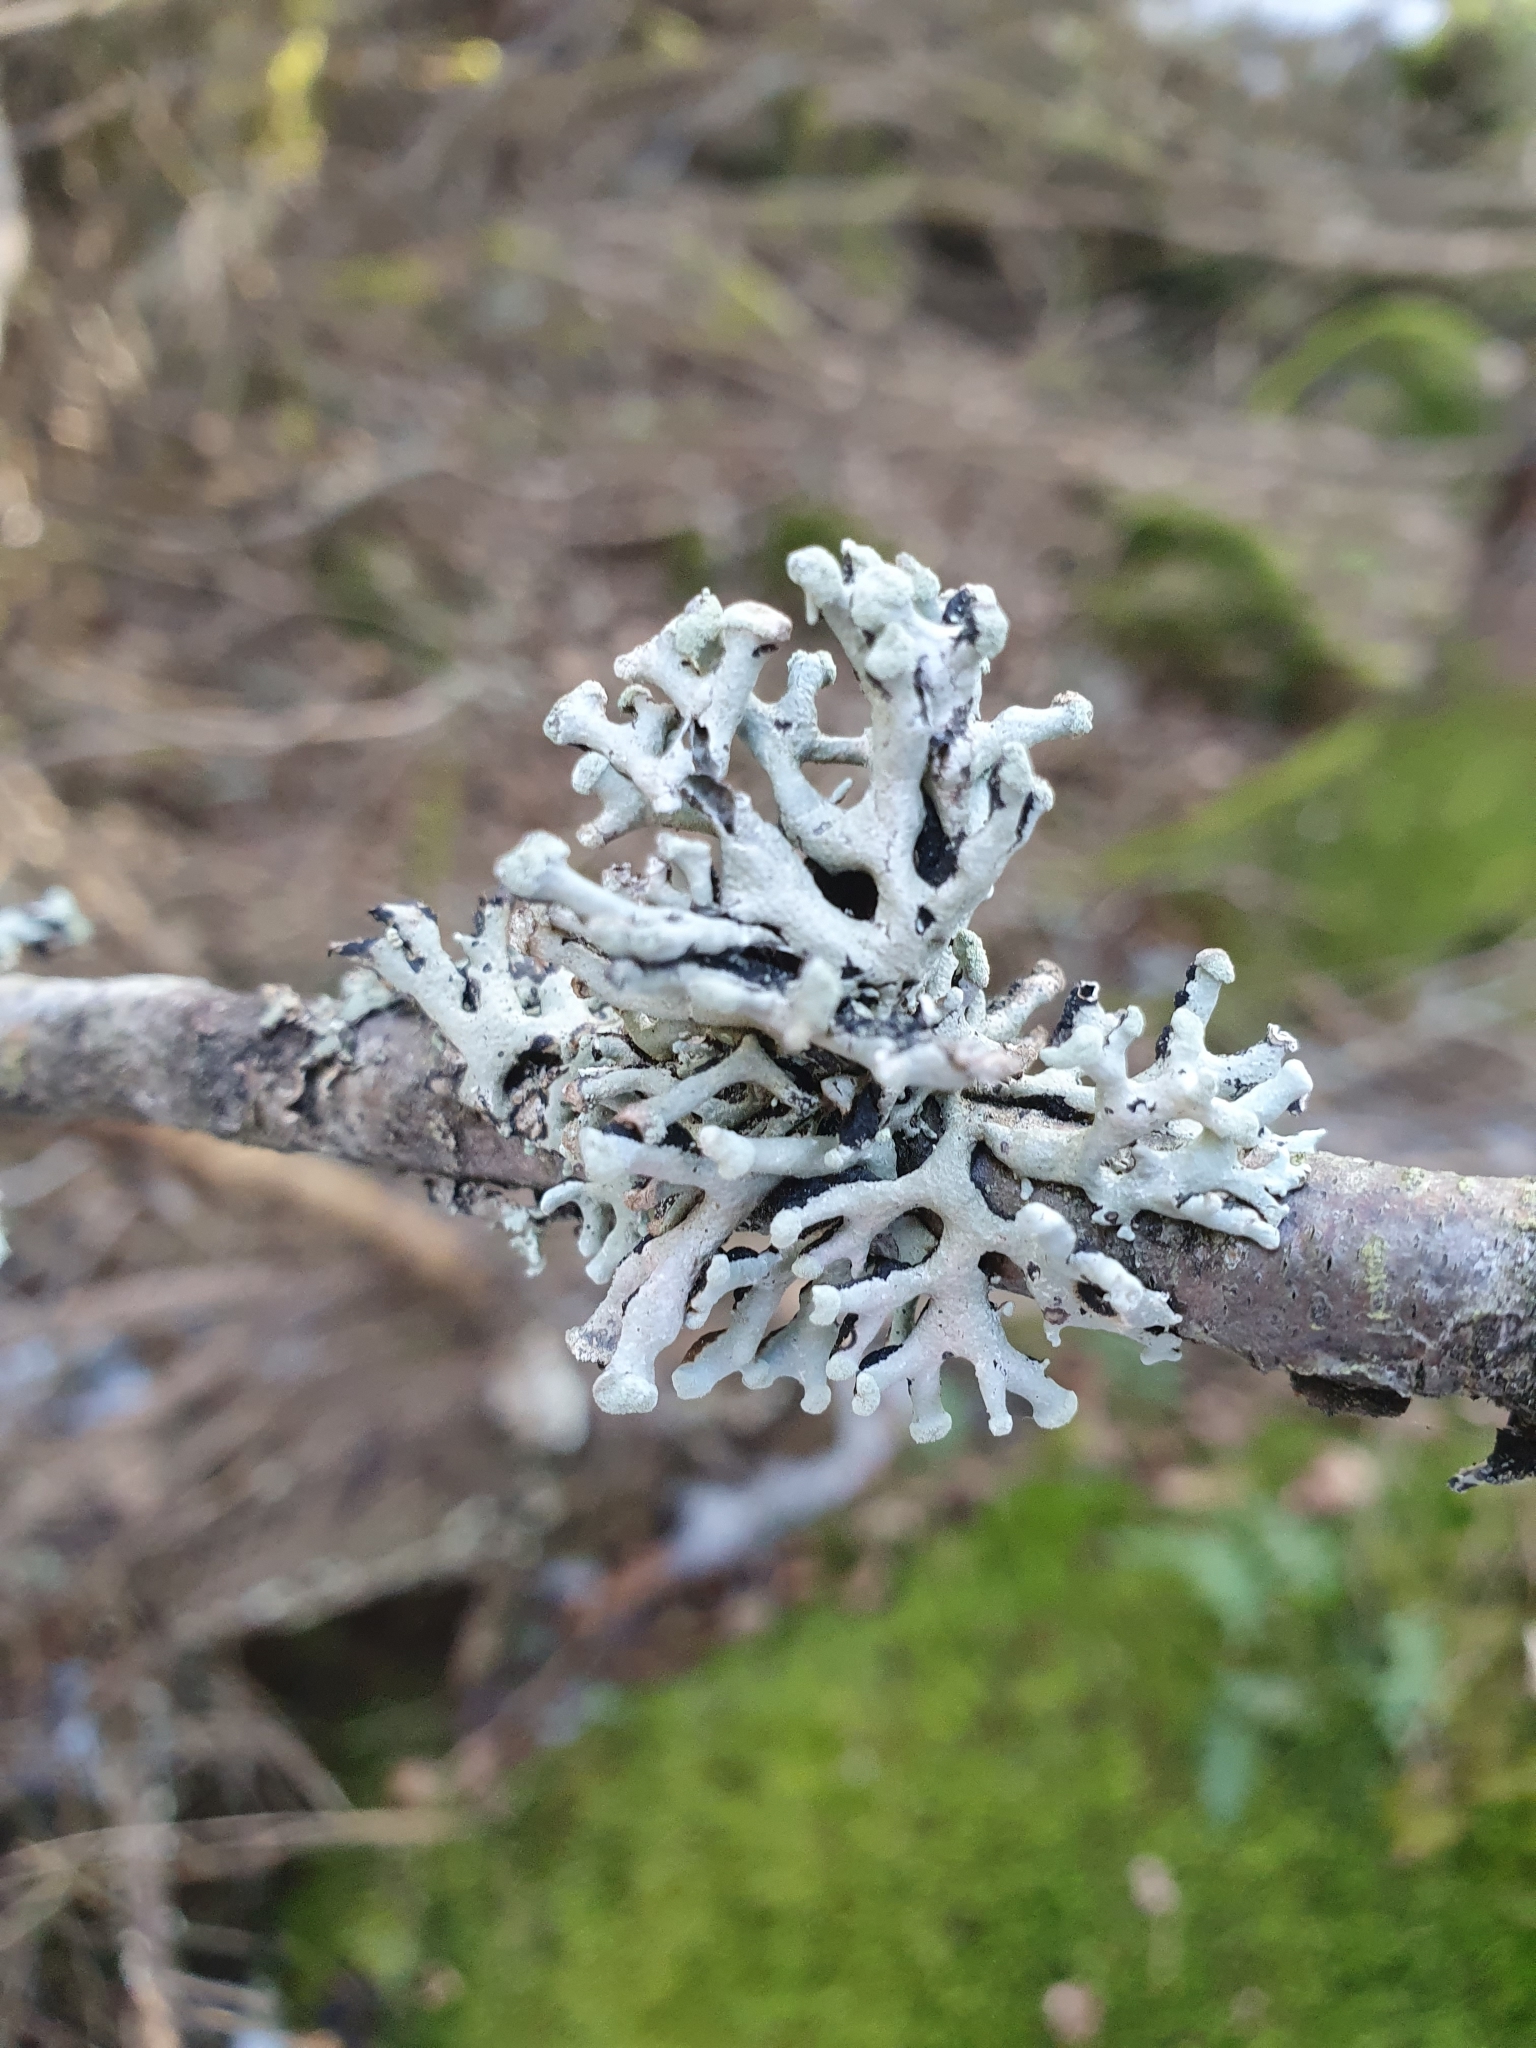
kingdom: Fungi
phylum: Ascomycota
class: Lecanoromycetes
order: Lecanorales
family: Parmeliaceae
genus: Hypogymnia
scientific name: Hypogymnia tubulosa
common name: Powder-headed tube lichen
